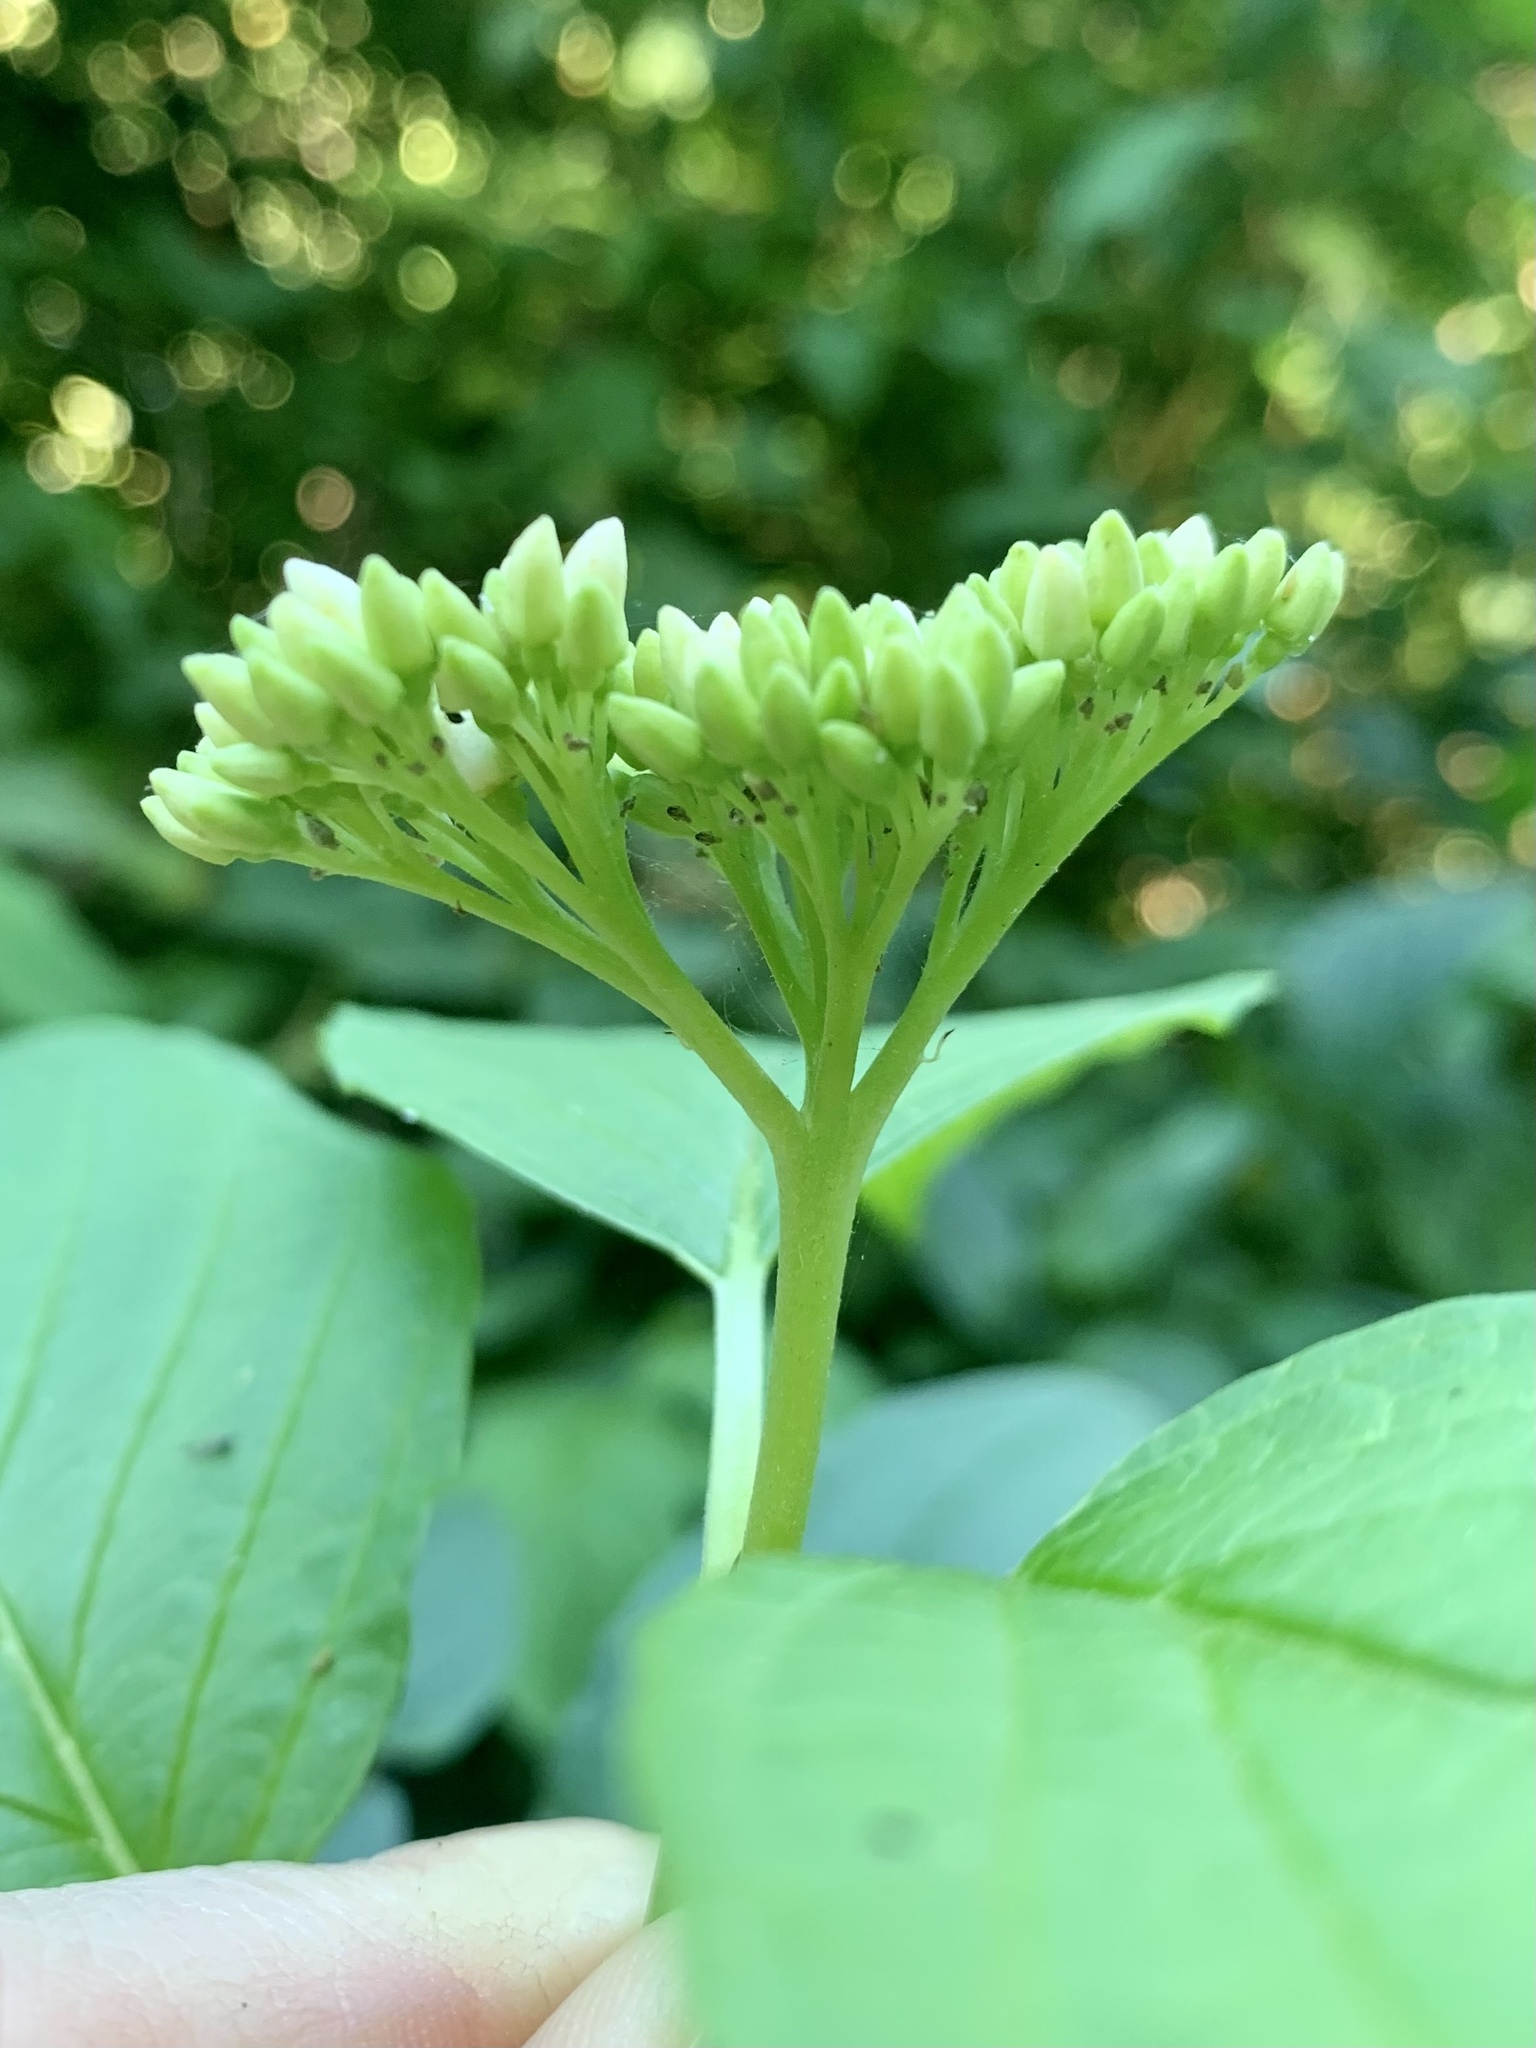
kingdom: Plantae
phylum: Tracheophyta
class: Magnoliopsida
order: Cornales
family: Cornaceae
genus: Cornus
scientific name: Cornus sericea
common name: Red-osier dogwood
